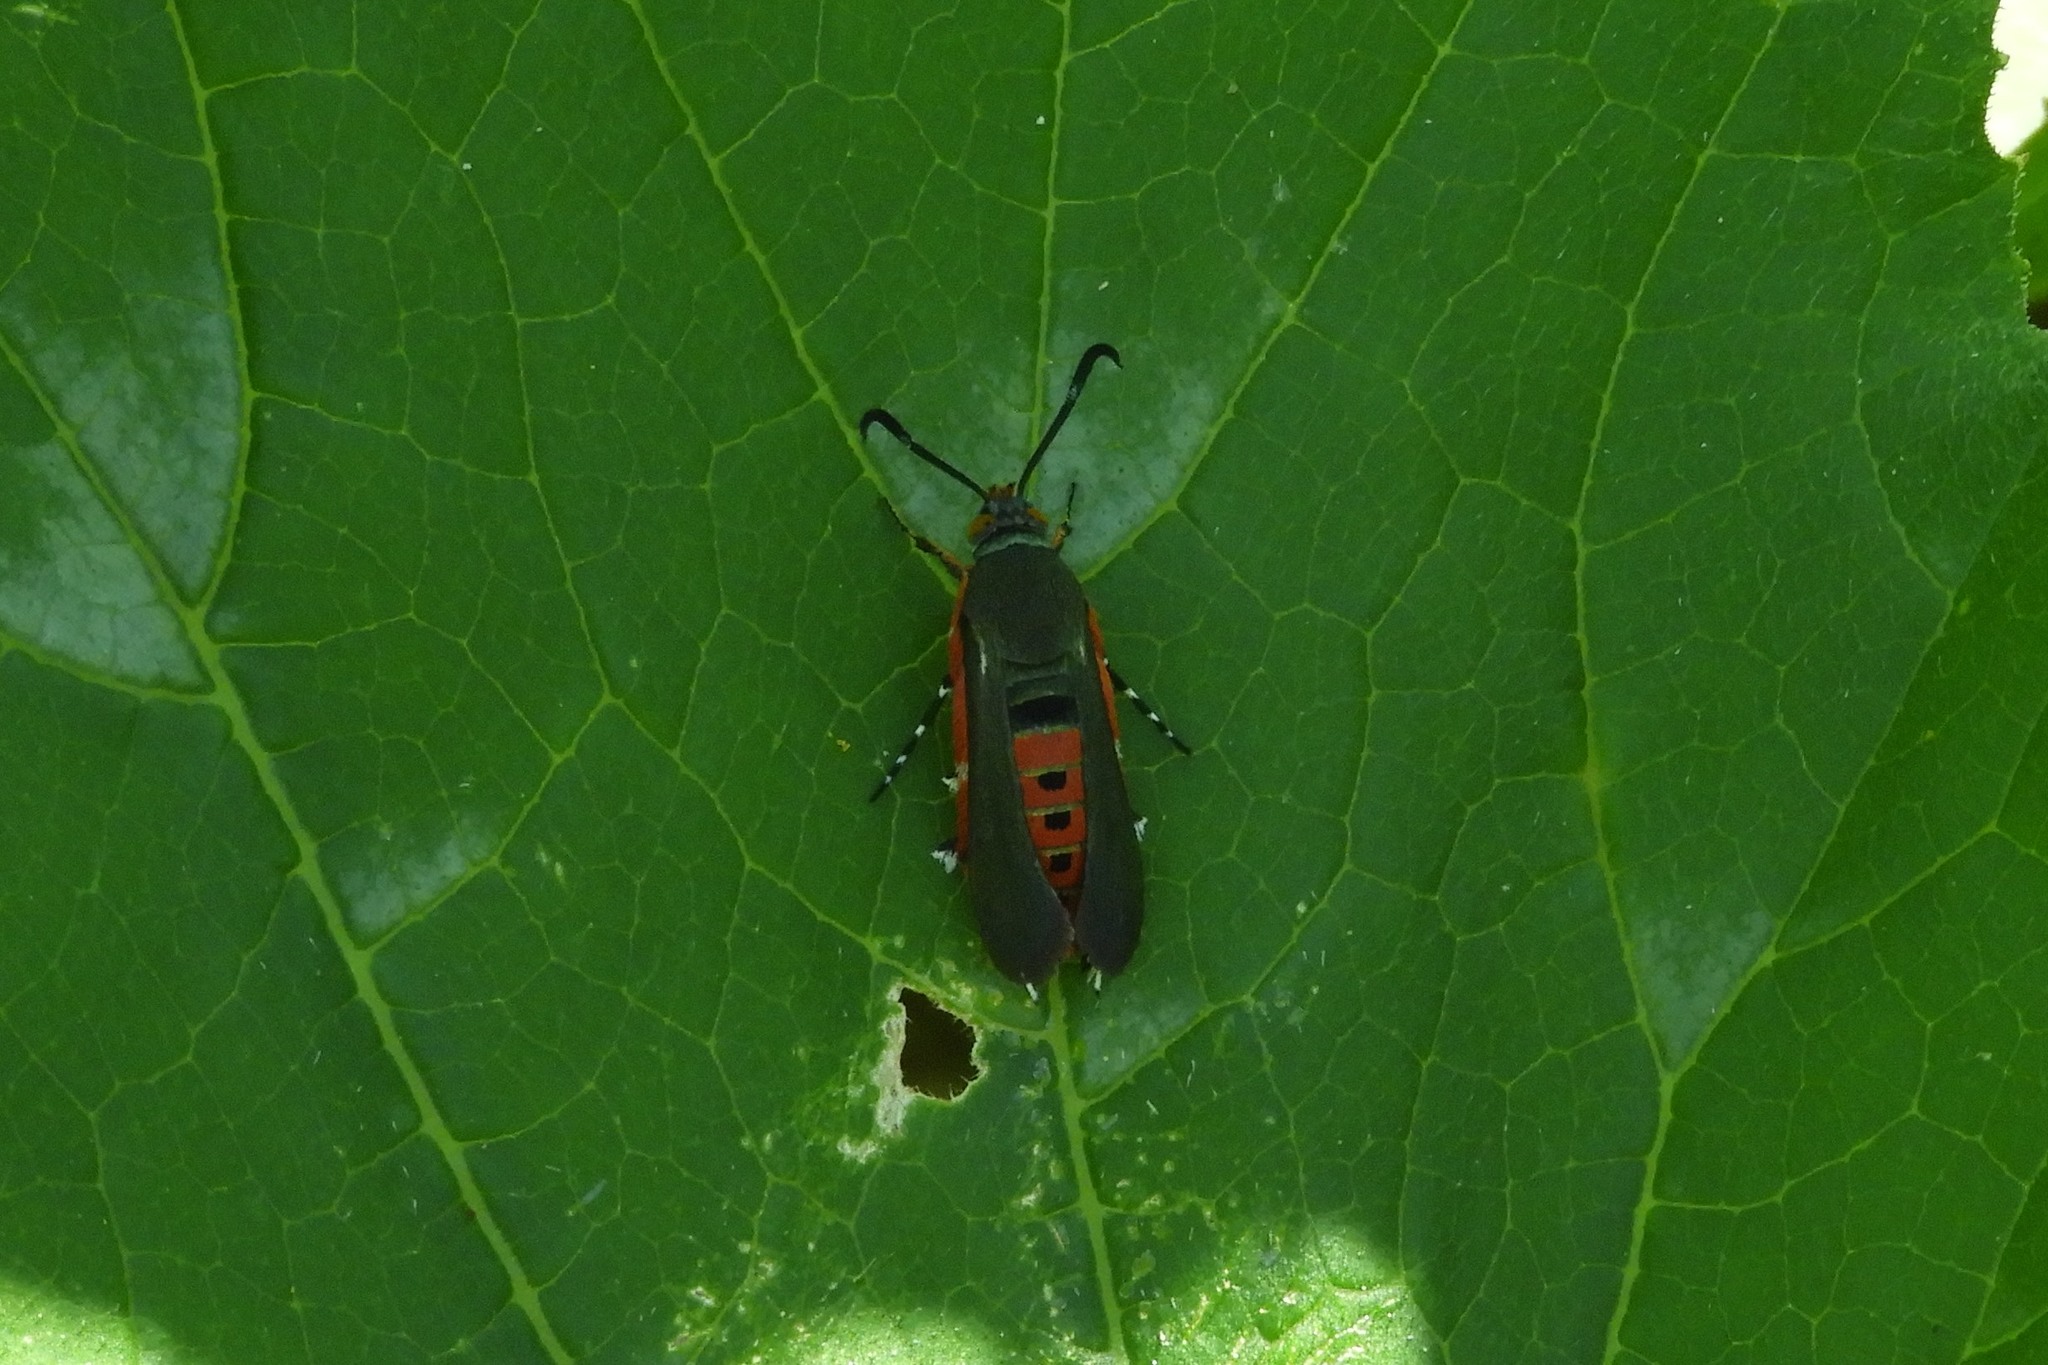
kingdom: Animalia
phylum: Arthropoda
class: Insecta
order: Lepidoptera
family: Sesiidae
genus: Eichlinia
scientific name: Eichlinia cucurbitae
